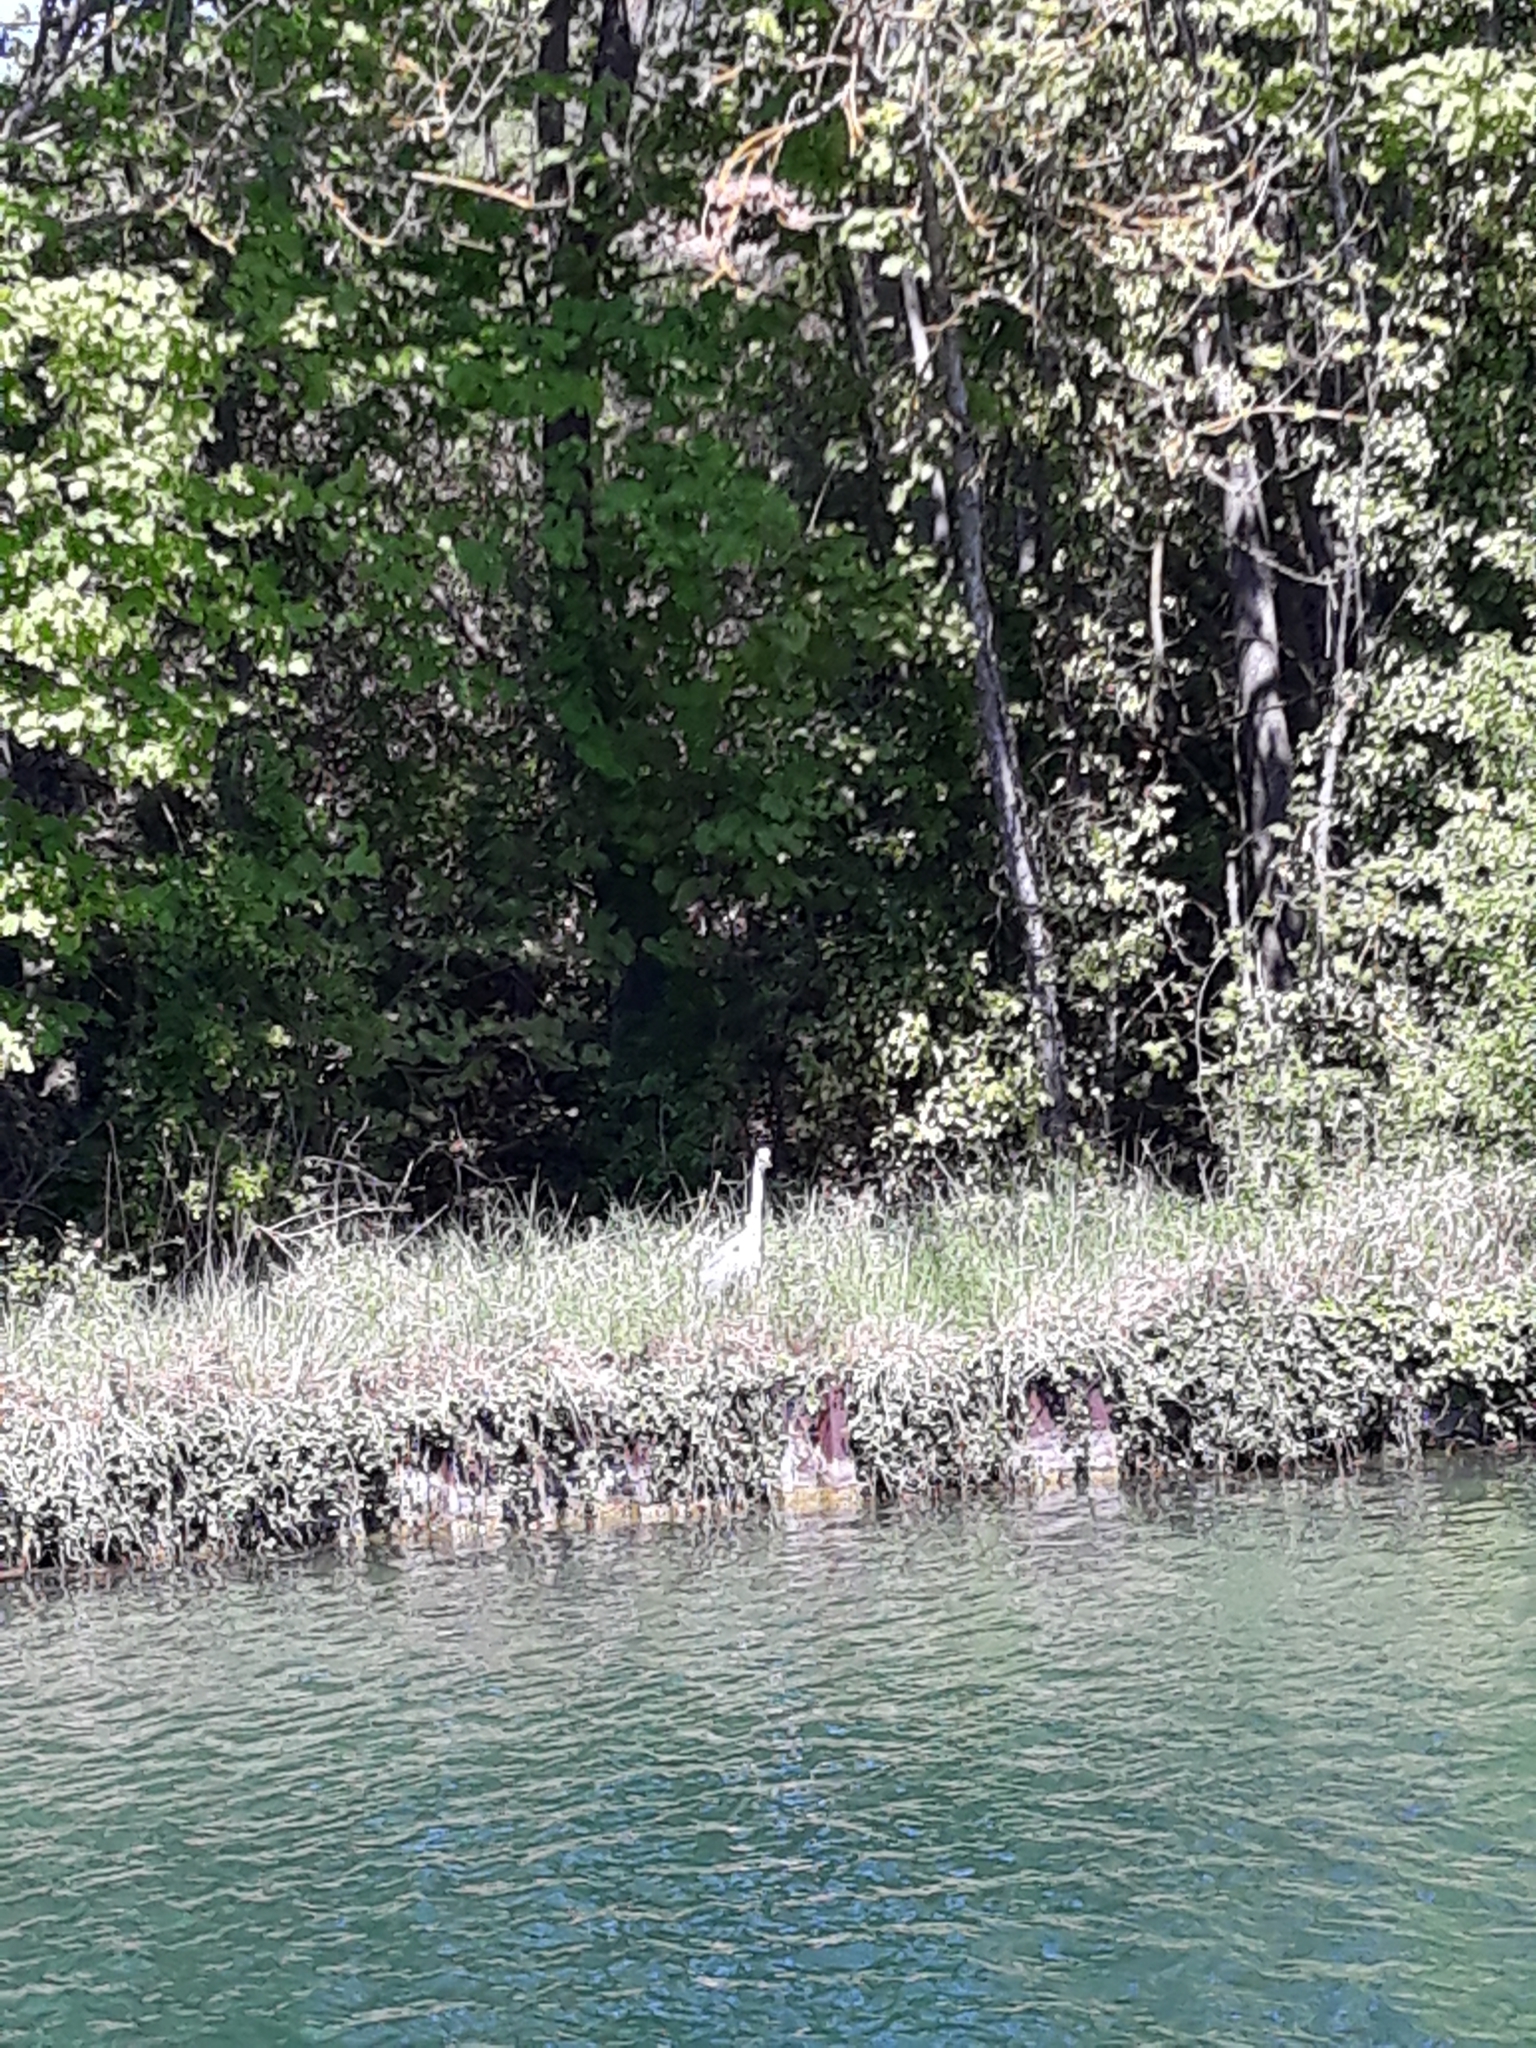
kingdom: Animalia
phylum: Chordata
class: Aves
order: Pelecaniformes
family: Ardeidae
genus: Ardea
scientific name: Ardea cinerea
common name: Grey heron
